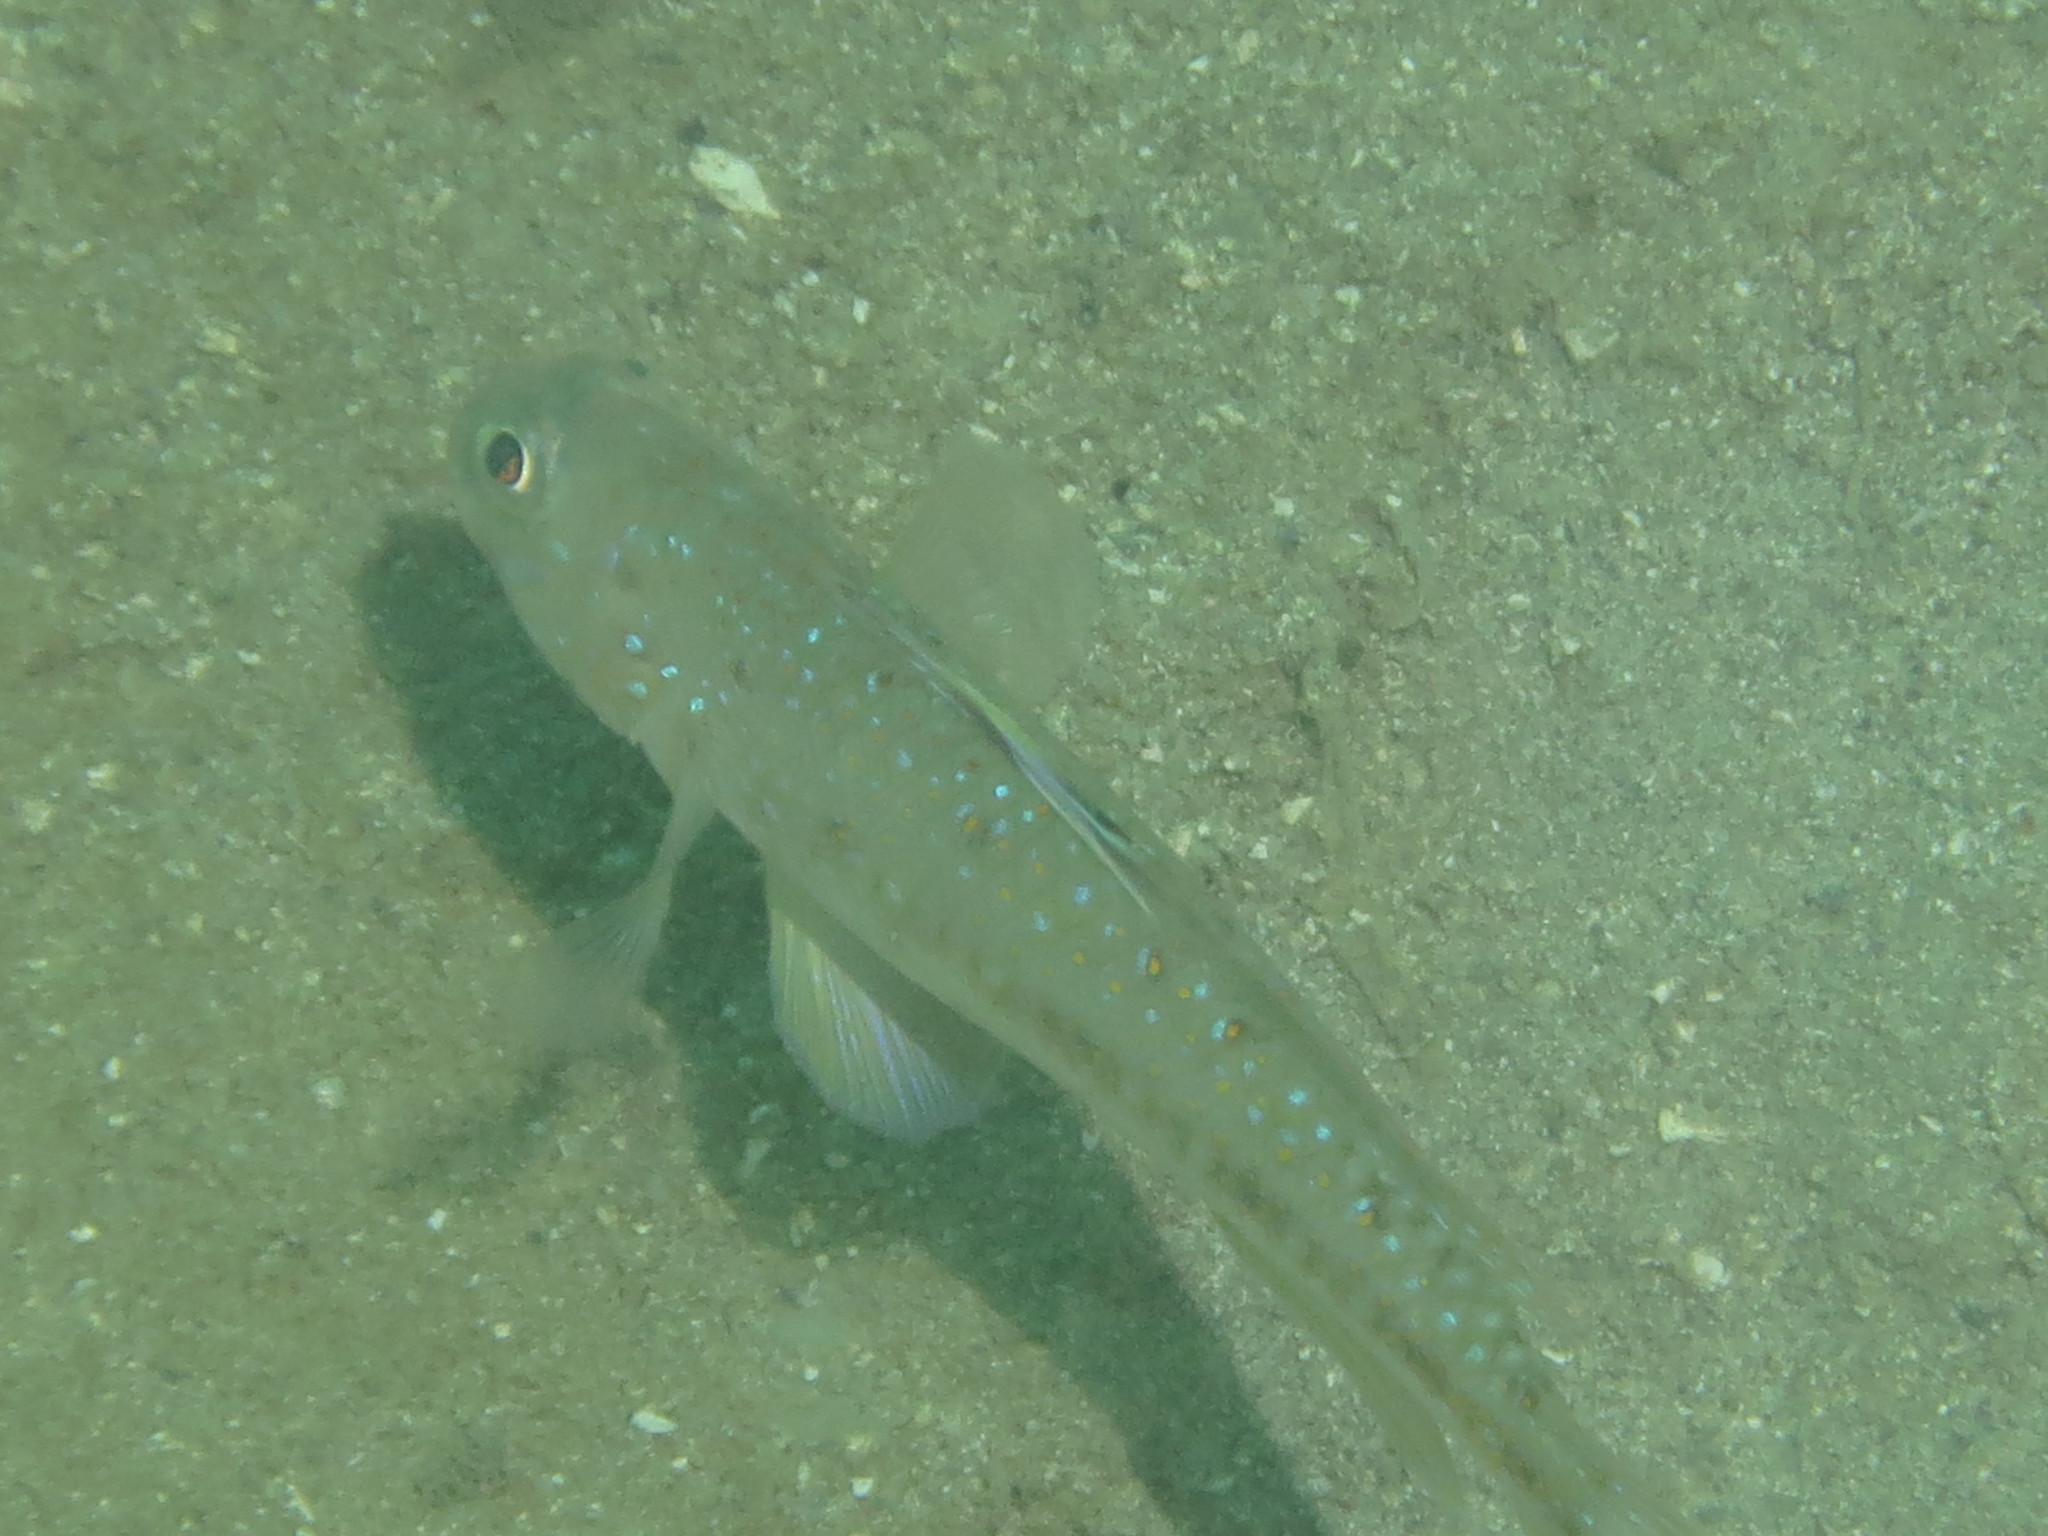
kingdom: Animalia
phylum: Chordata
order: Perciformes
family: Gobiidae
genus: Oplopomus
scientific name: Oplopomus oplopomus
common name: Spinecheek goby
